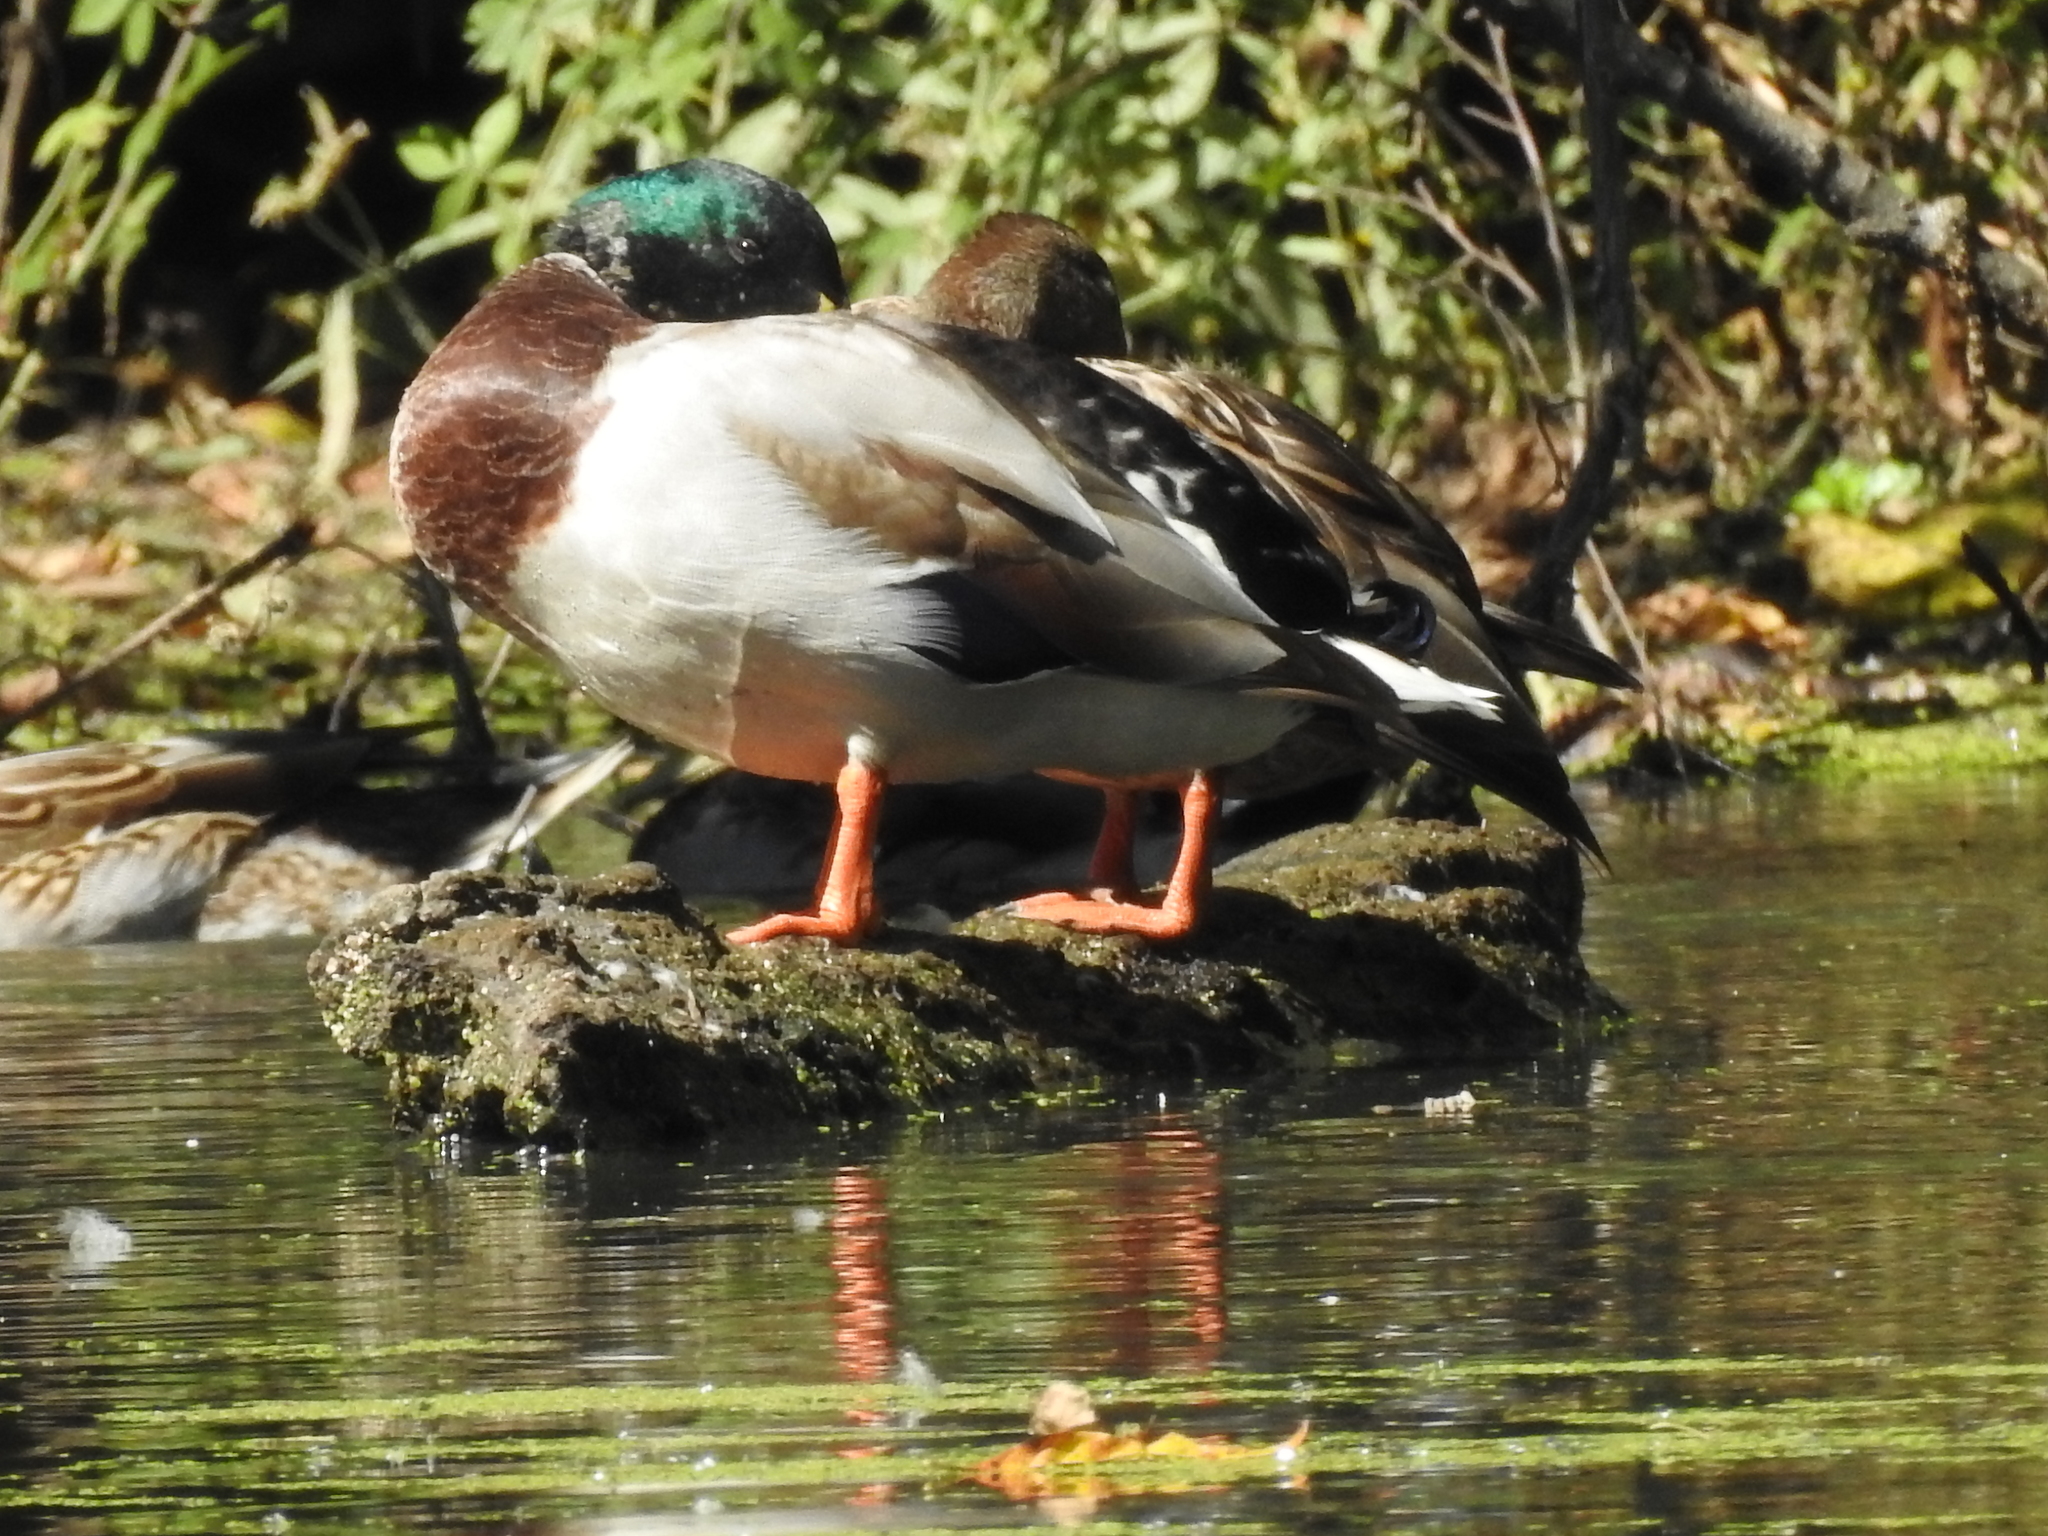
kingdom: Animalia
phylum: Chordata
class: Aves
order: Anseriformes
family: Anatidae
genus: Anas
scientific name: Anas platyrhynchos
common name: Mallard
